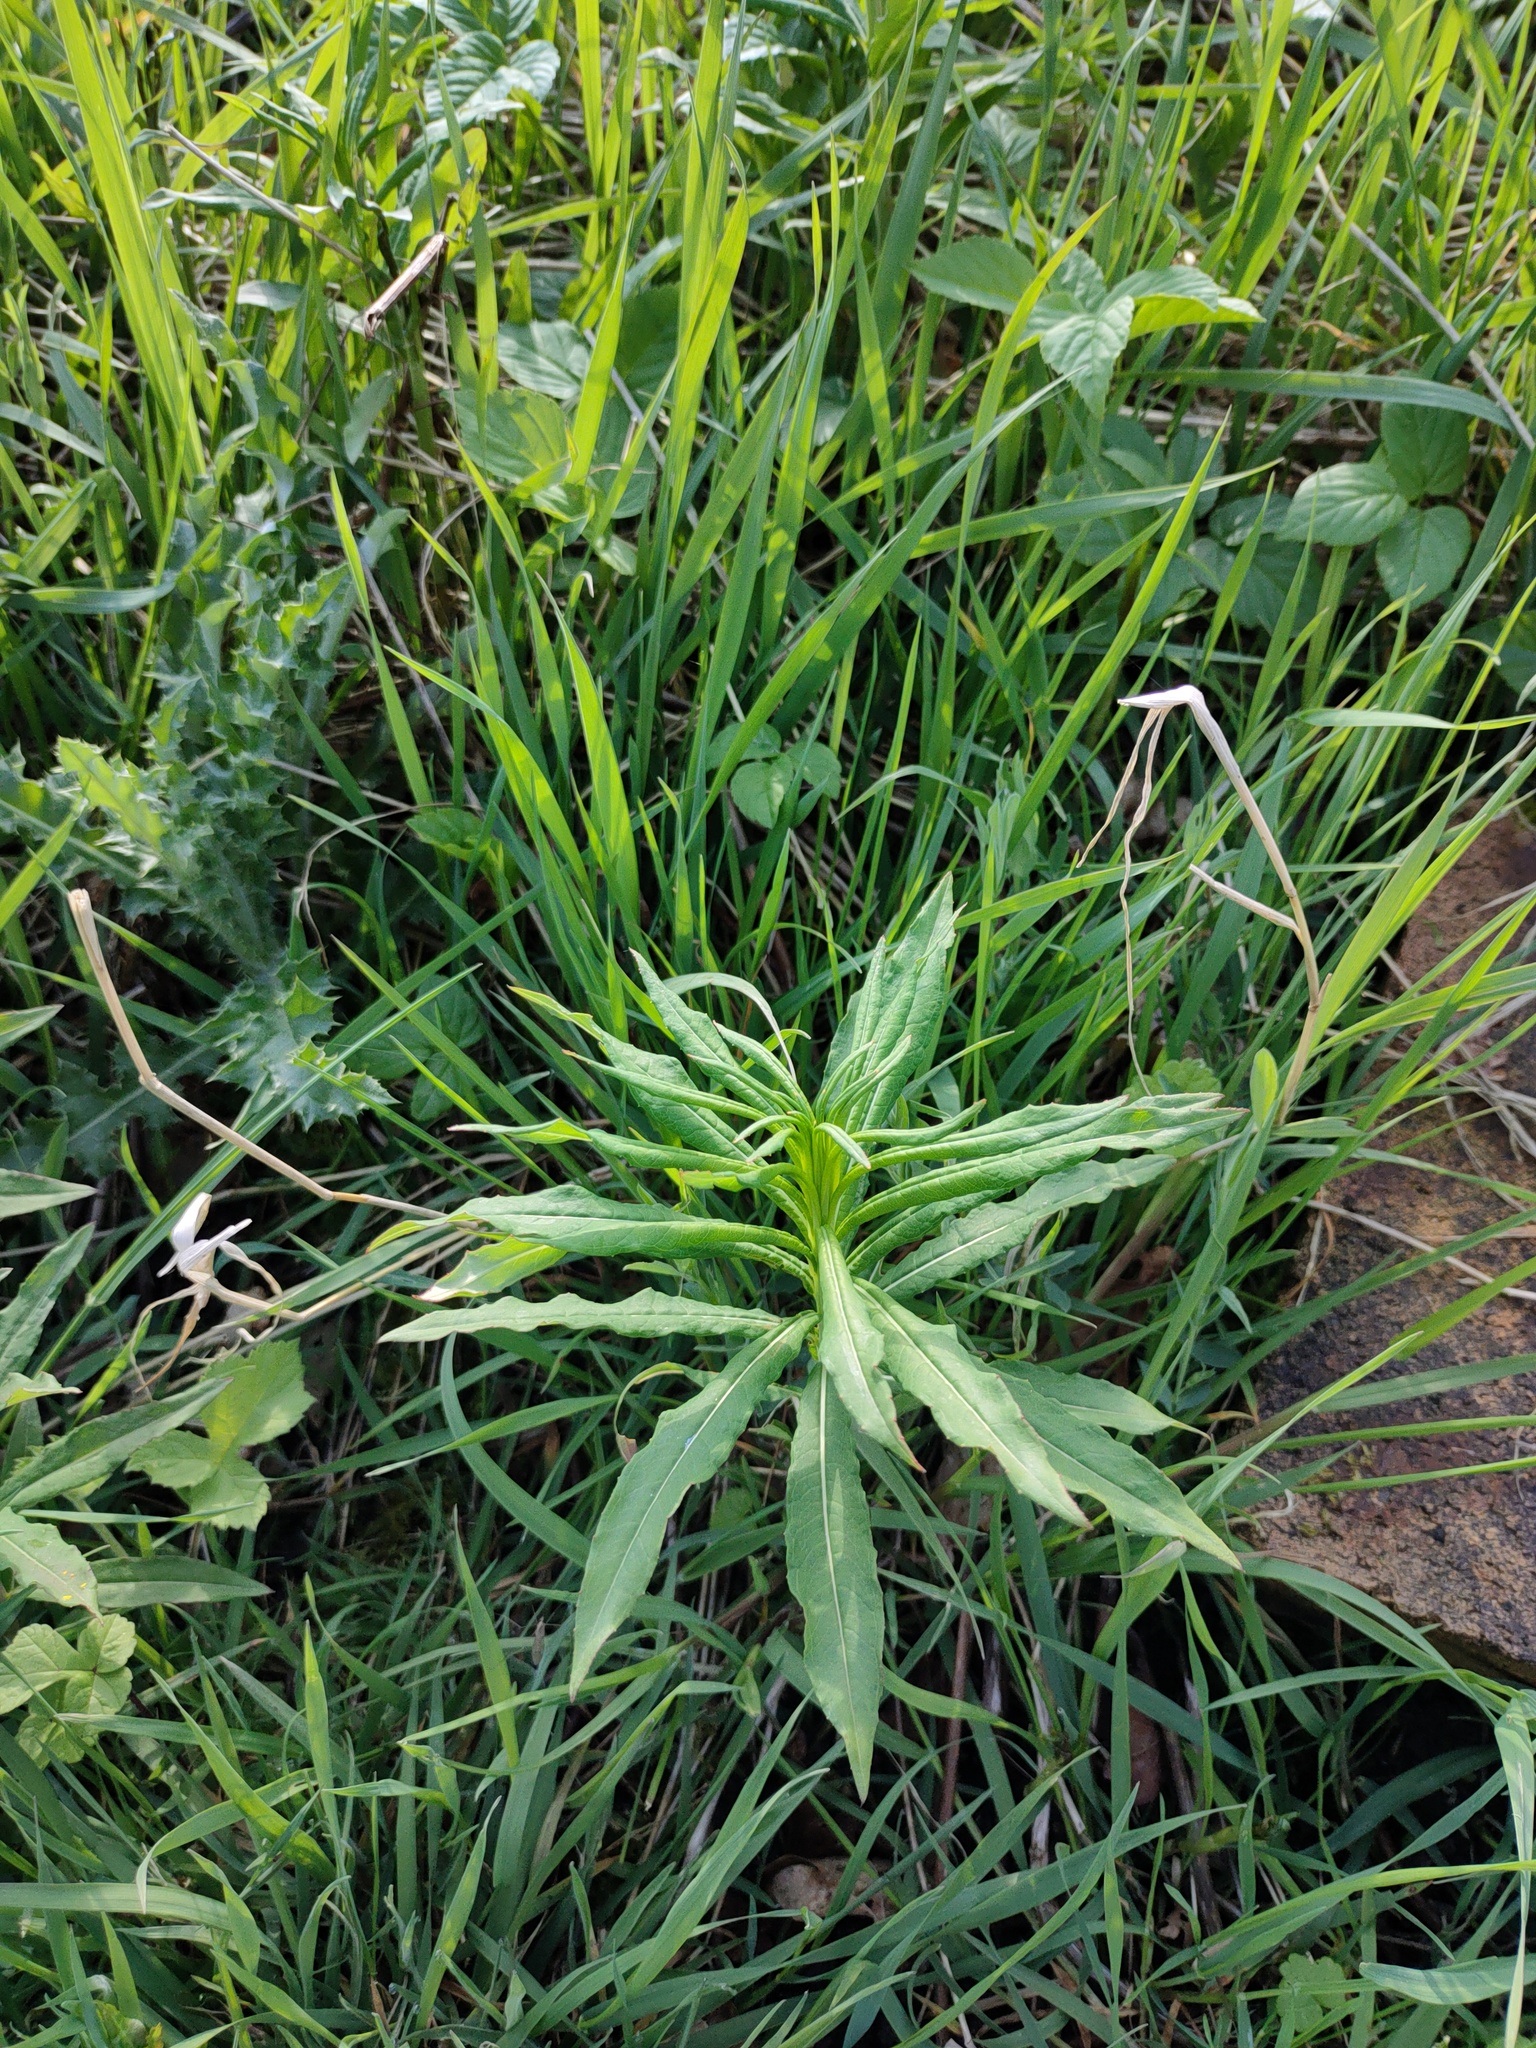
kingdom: Plantae
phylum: Tracheophyta
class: Magnoliopsida
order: Myrtales
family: Onagraceae
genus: Chamaenerion
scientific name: Chamaenerion angustifolium
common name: Fireweed
